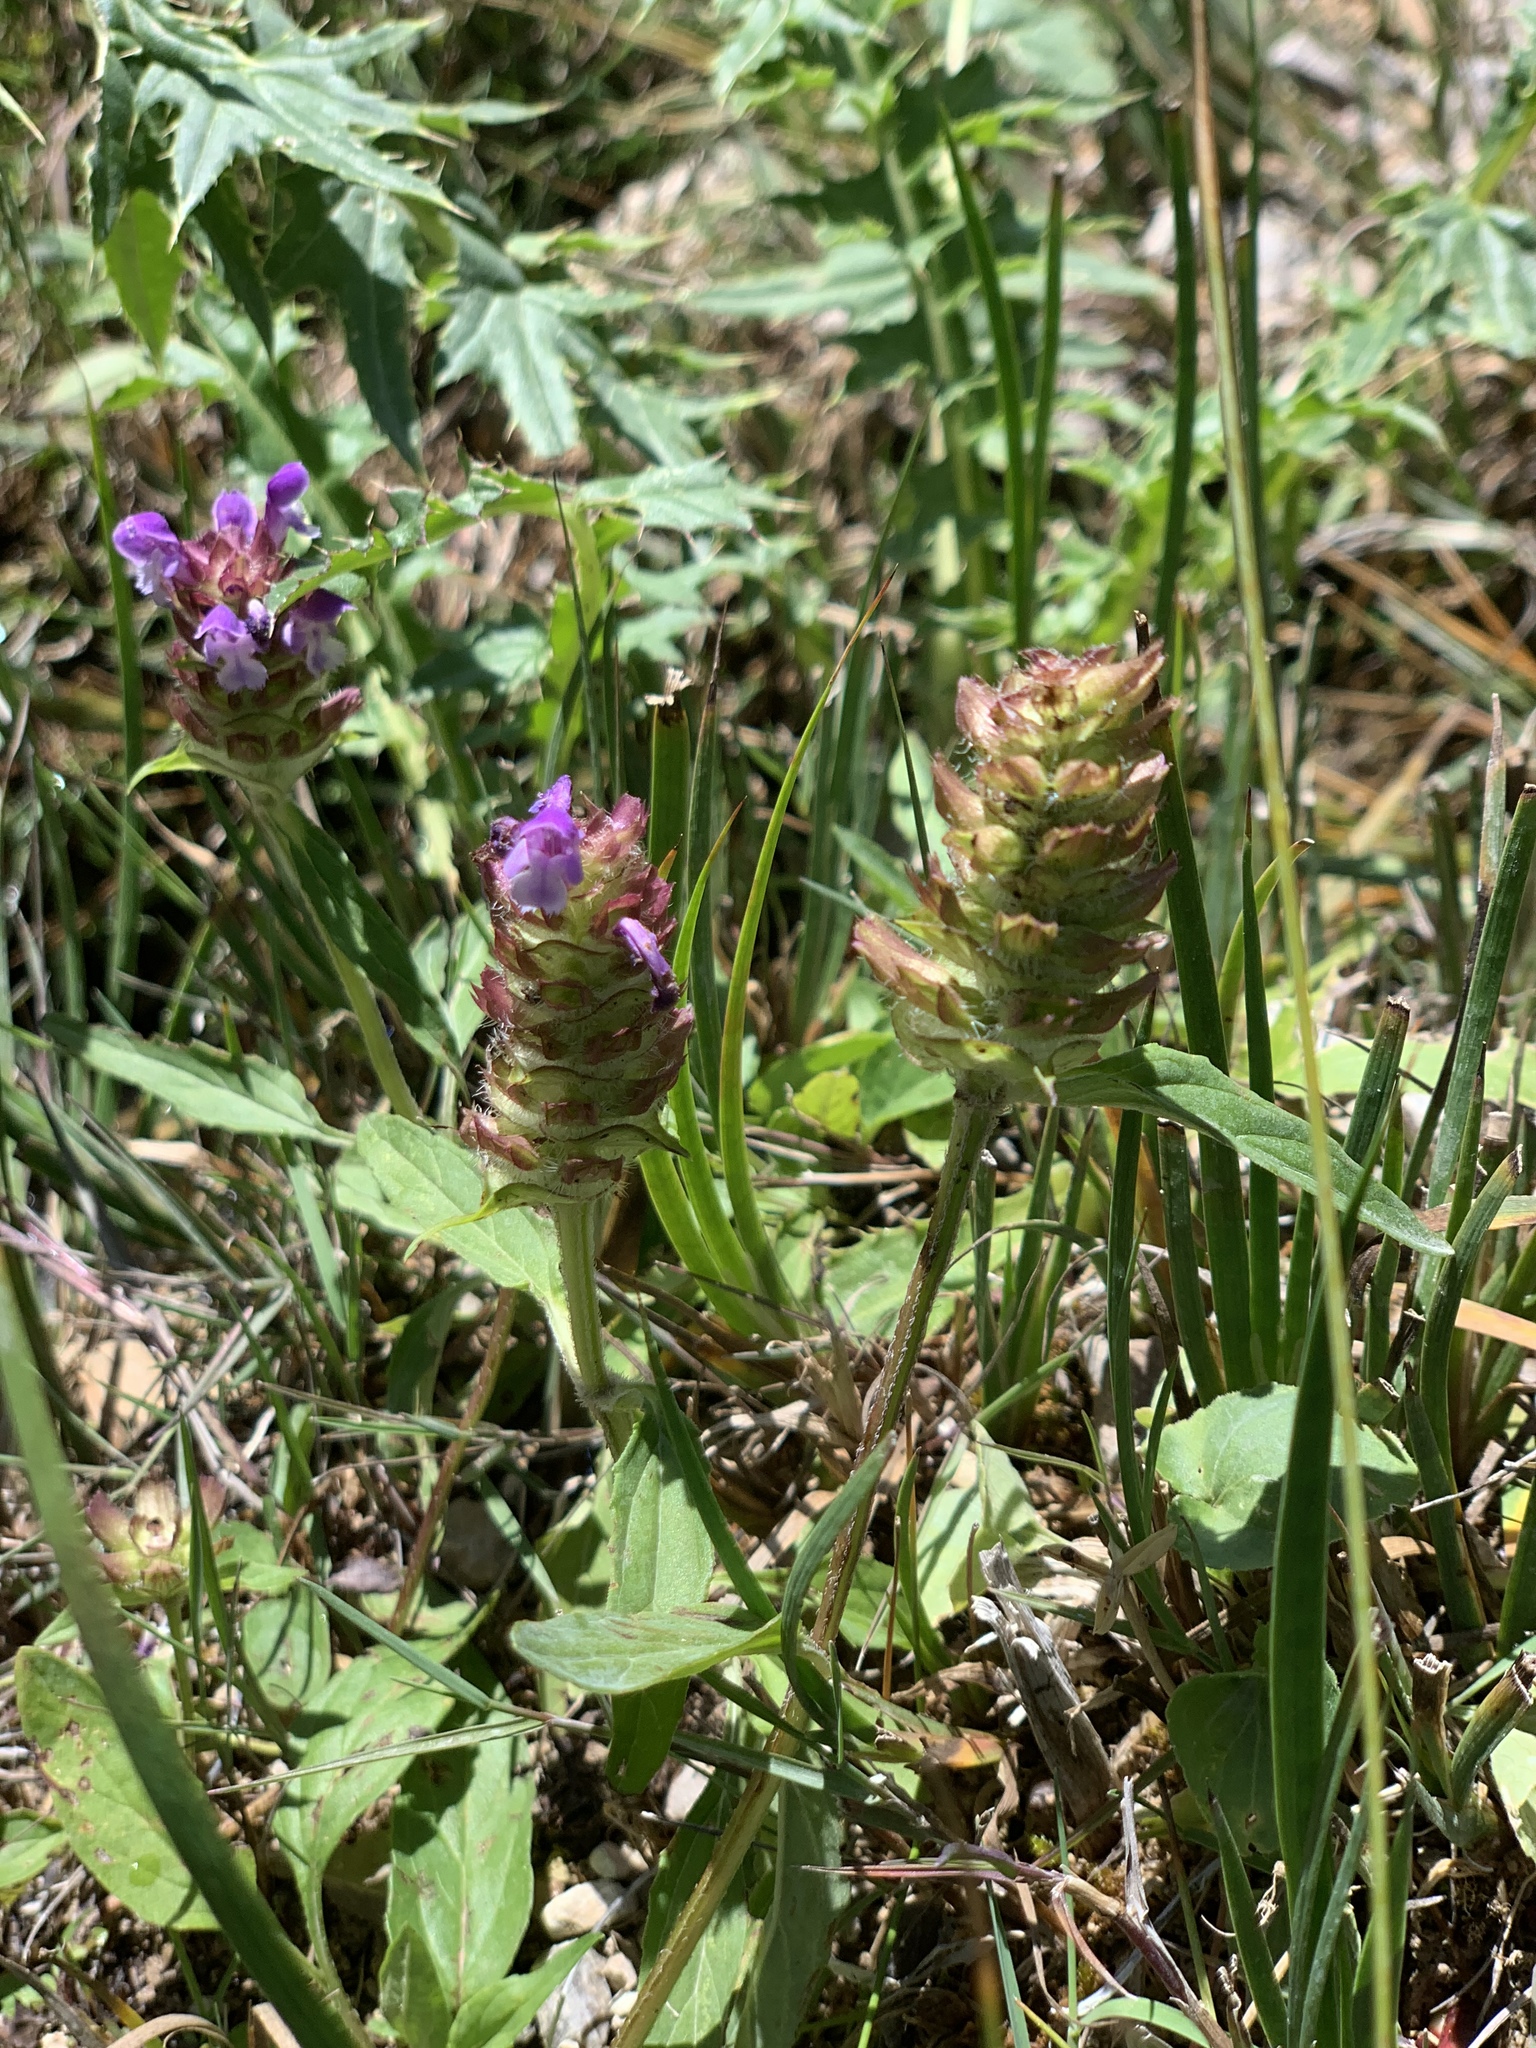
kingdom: Plantae
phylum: Tracheophyta
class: Magnoliopsida
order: Lamiales
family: Lamiaceae
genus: Prunella
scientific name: Prunella vulgaris
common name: Heal-all
